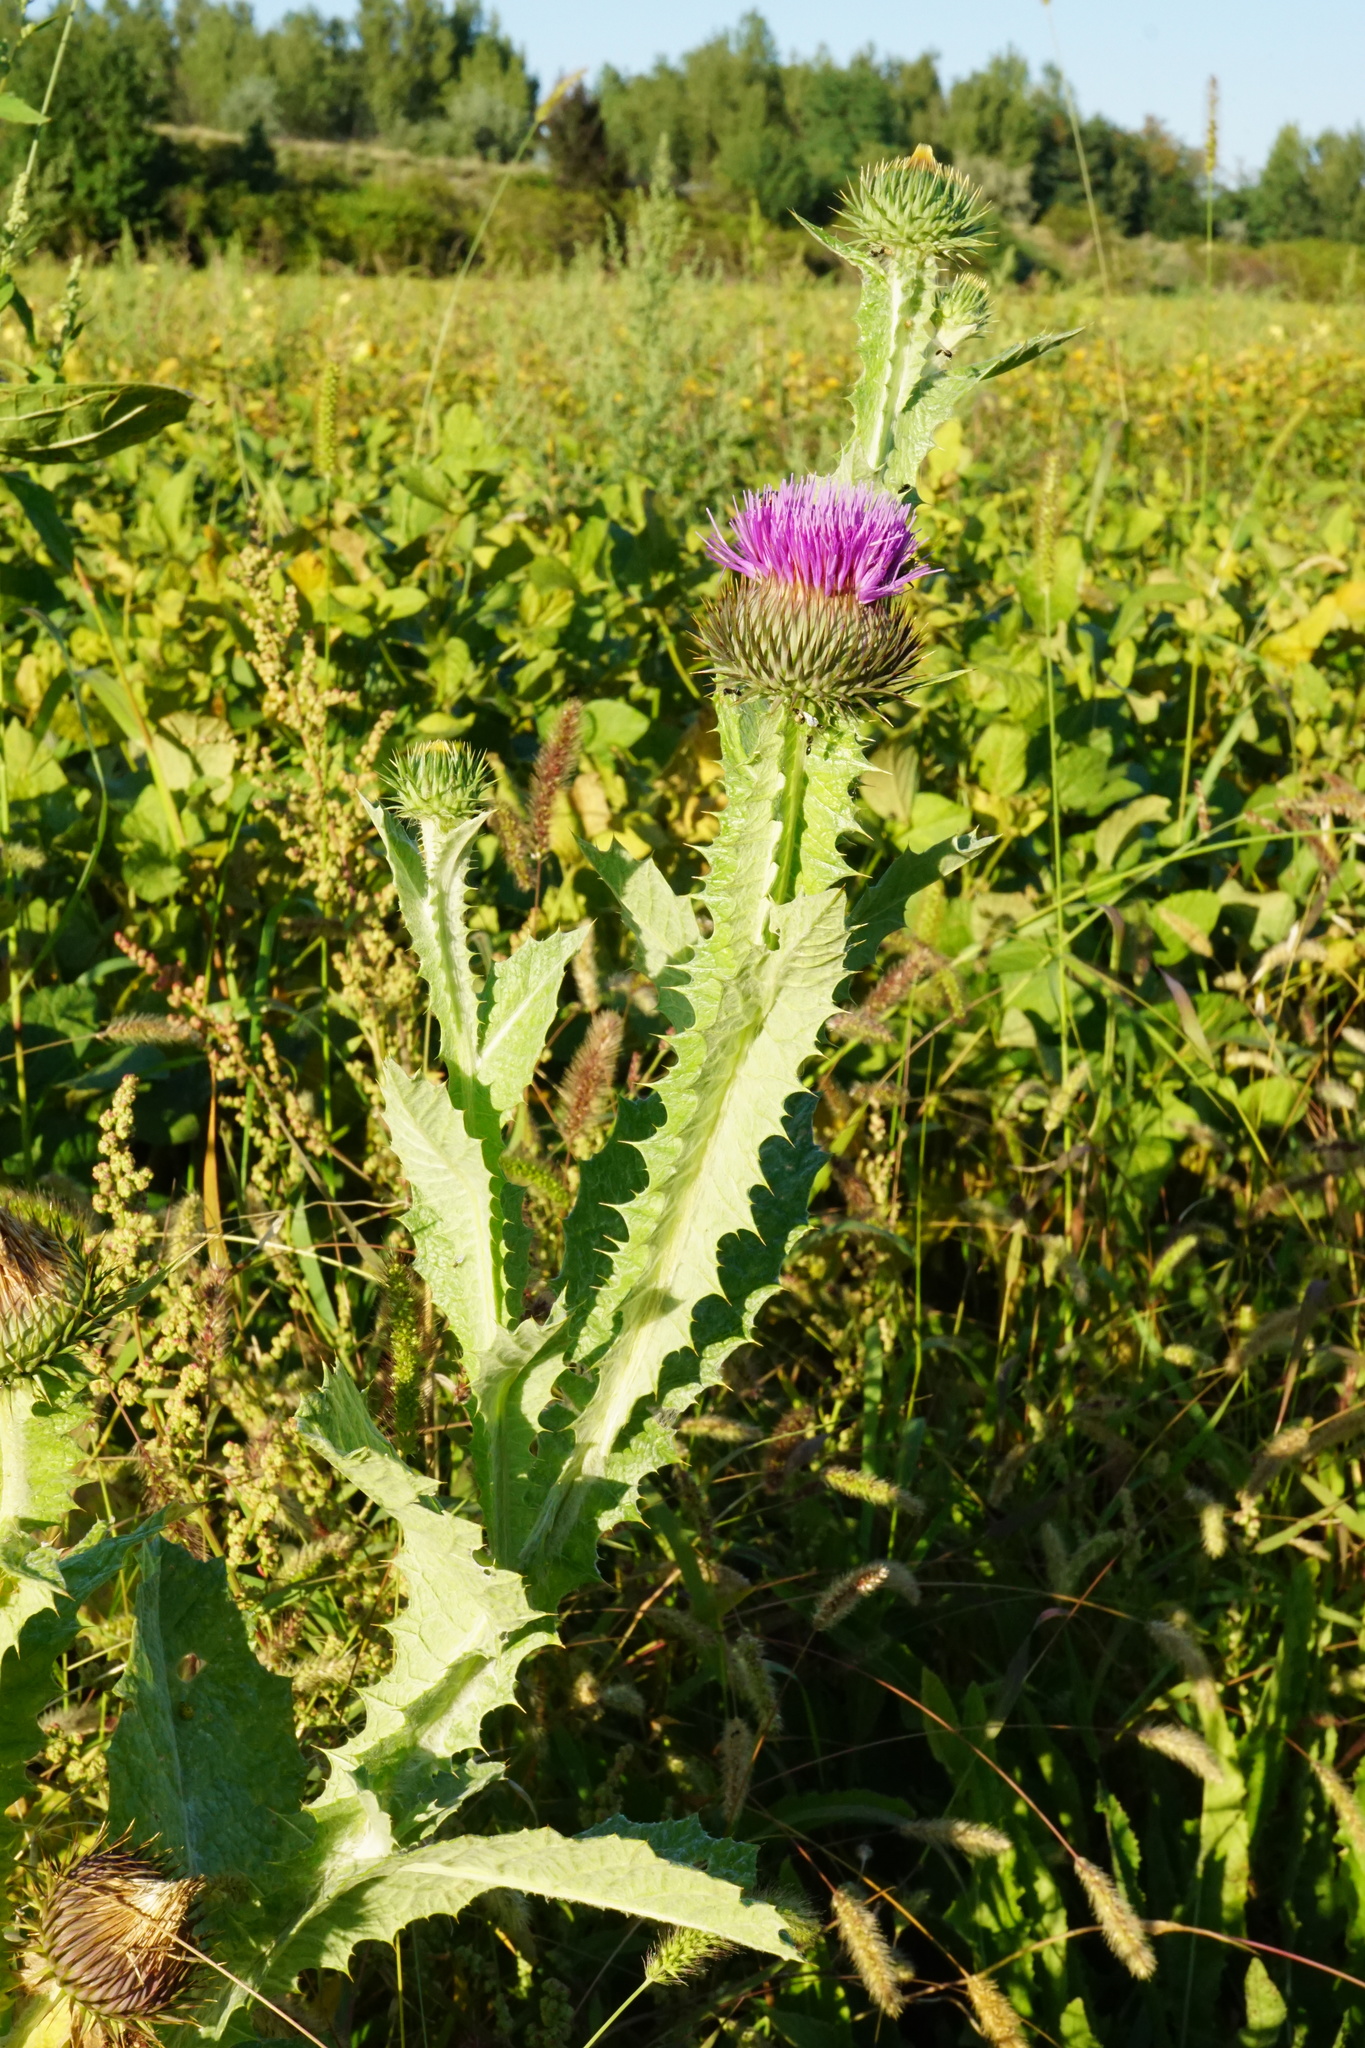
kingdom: Plantae
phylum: Tracheophyta
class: Magnoliopsida
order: Asterales
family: Asteraceae
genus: Onopordum
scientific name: Onopordum acanthium
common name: Scotch thistle
